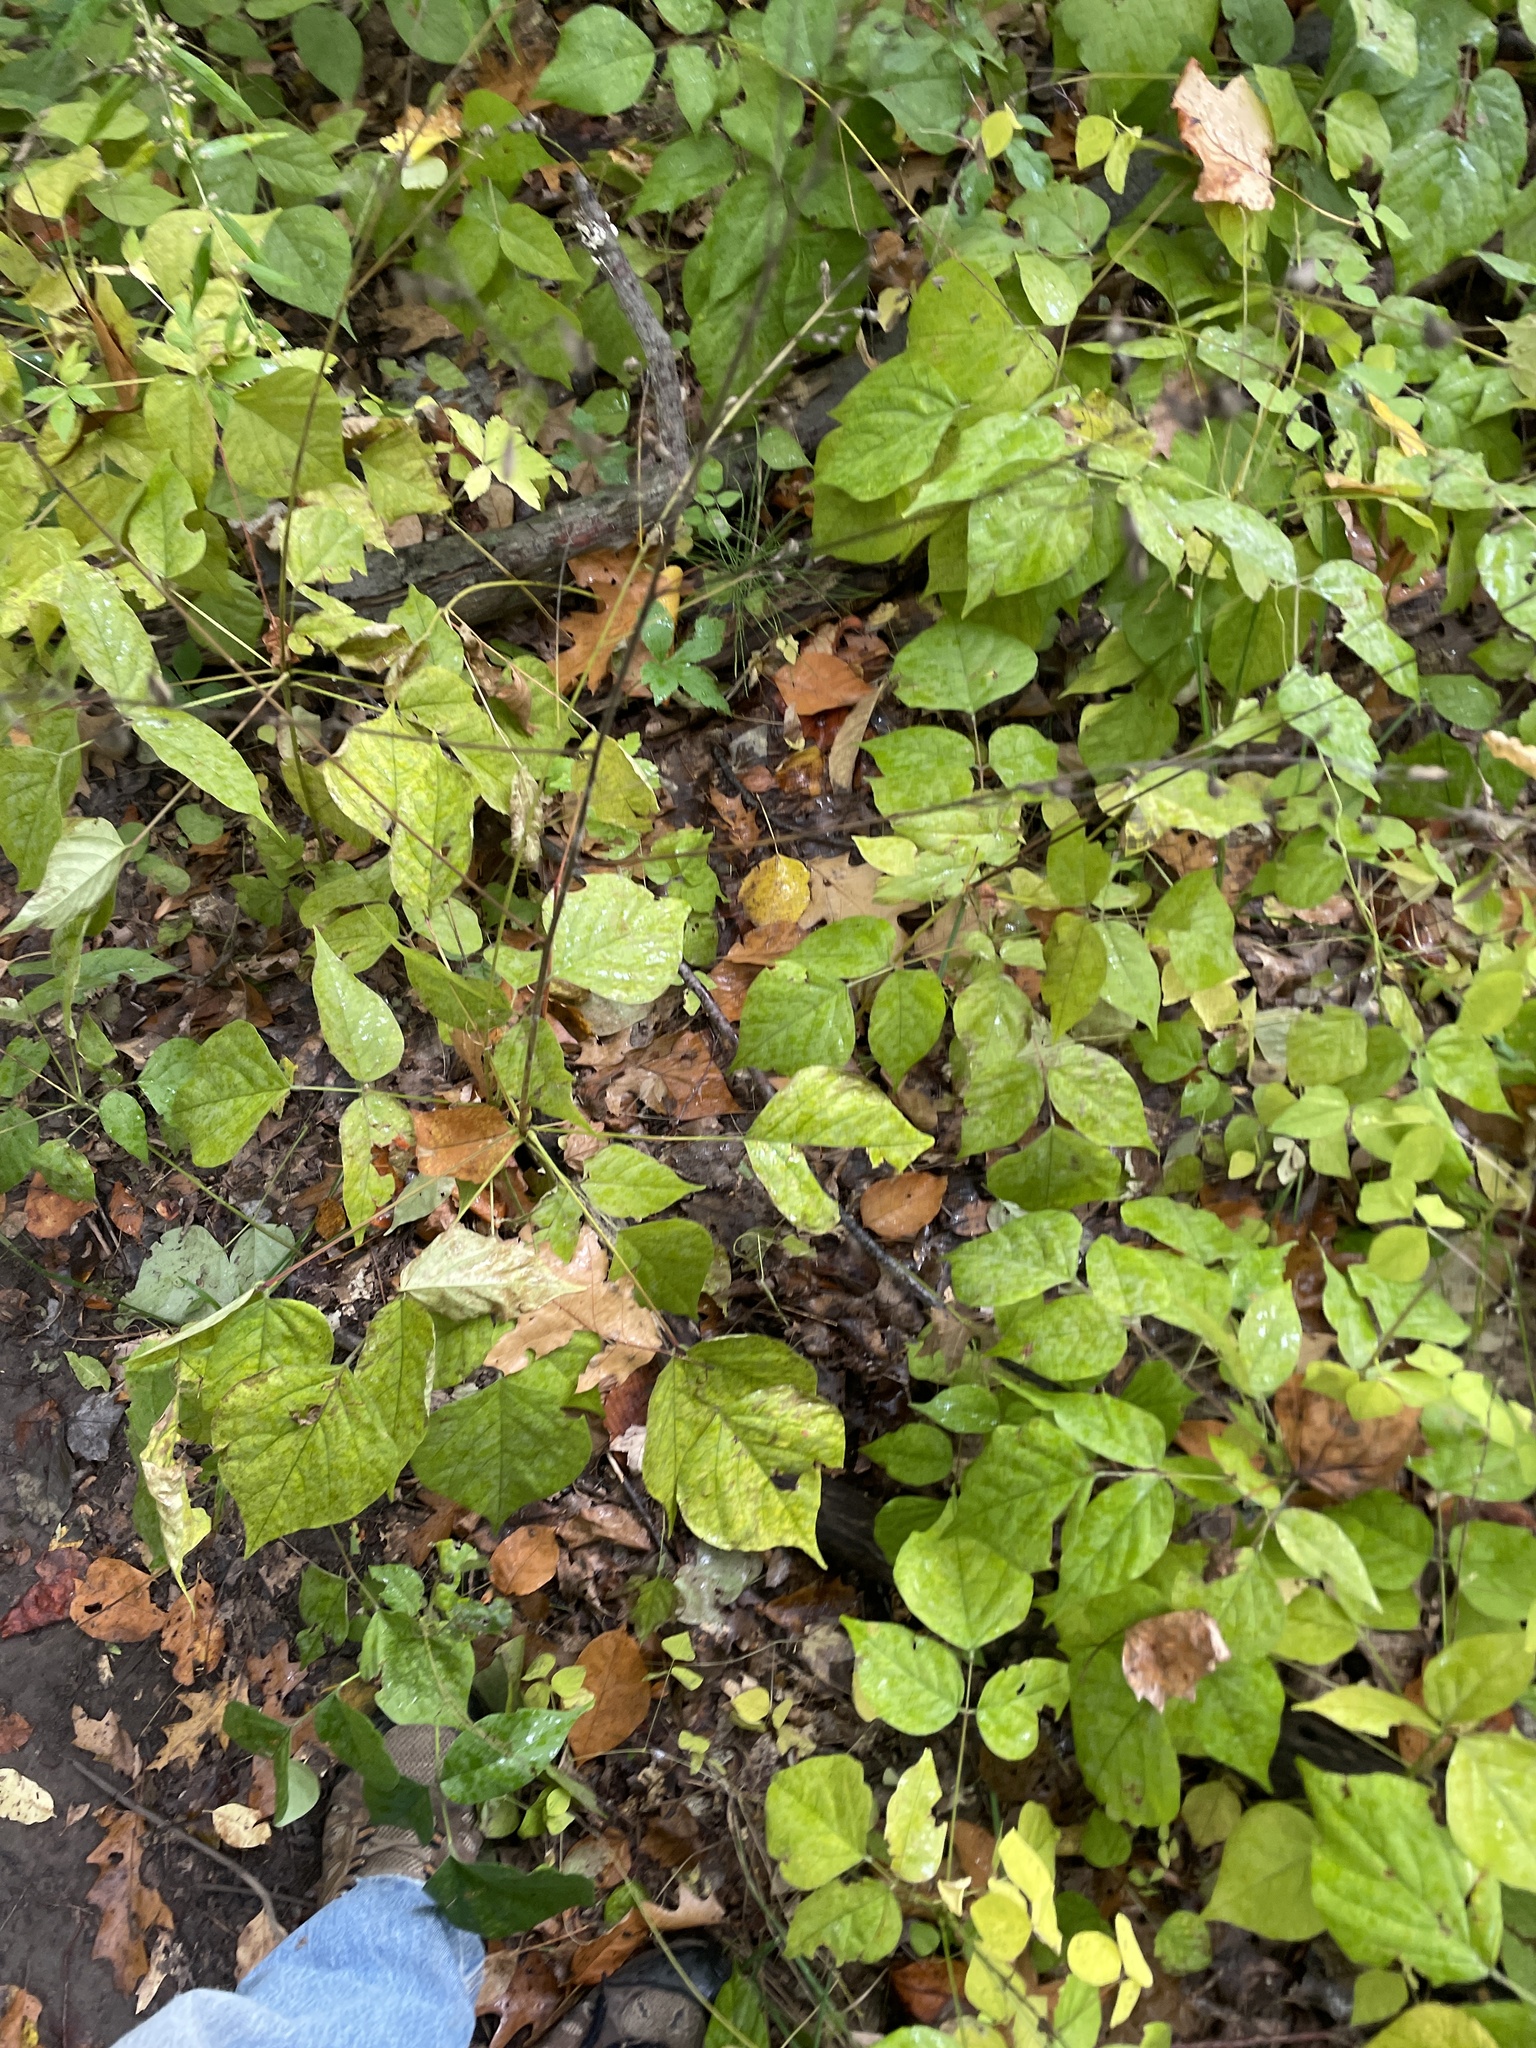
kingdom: Plantae
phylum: Tracheophyta
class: Magnoliopsida
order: Fabales
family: Fabaceae
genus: Hylodesmum
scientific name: Hylodesmum glutinosum
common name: Clustered-leaved tick-trefoil
